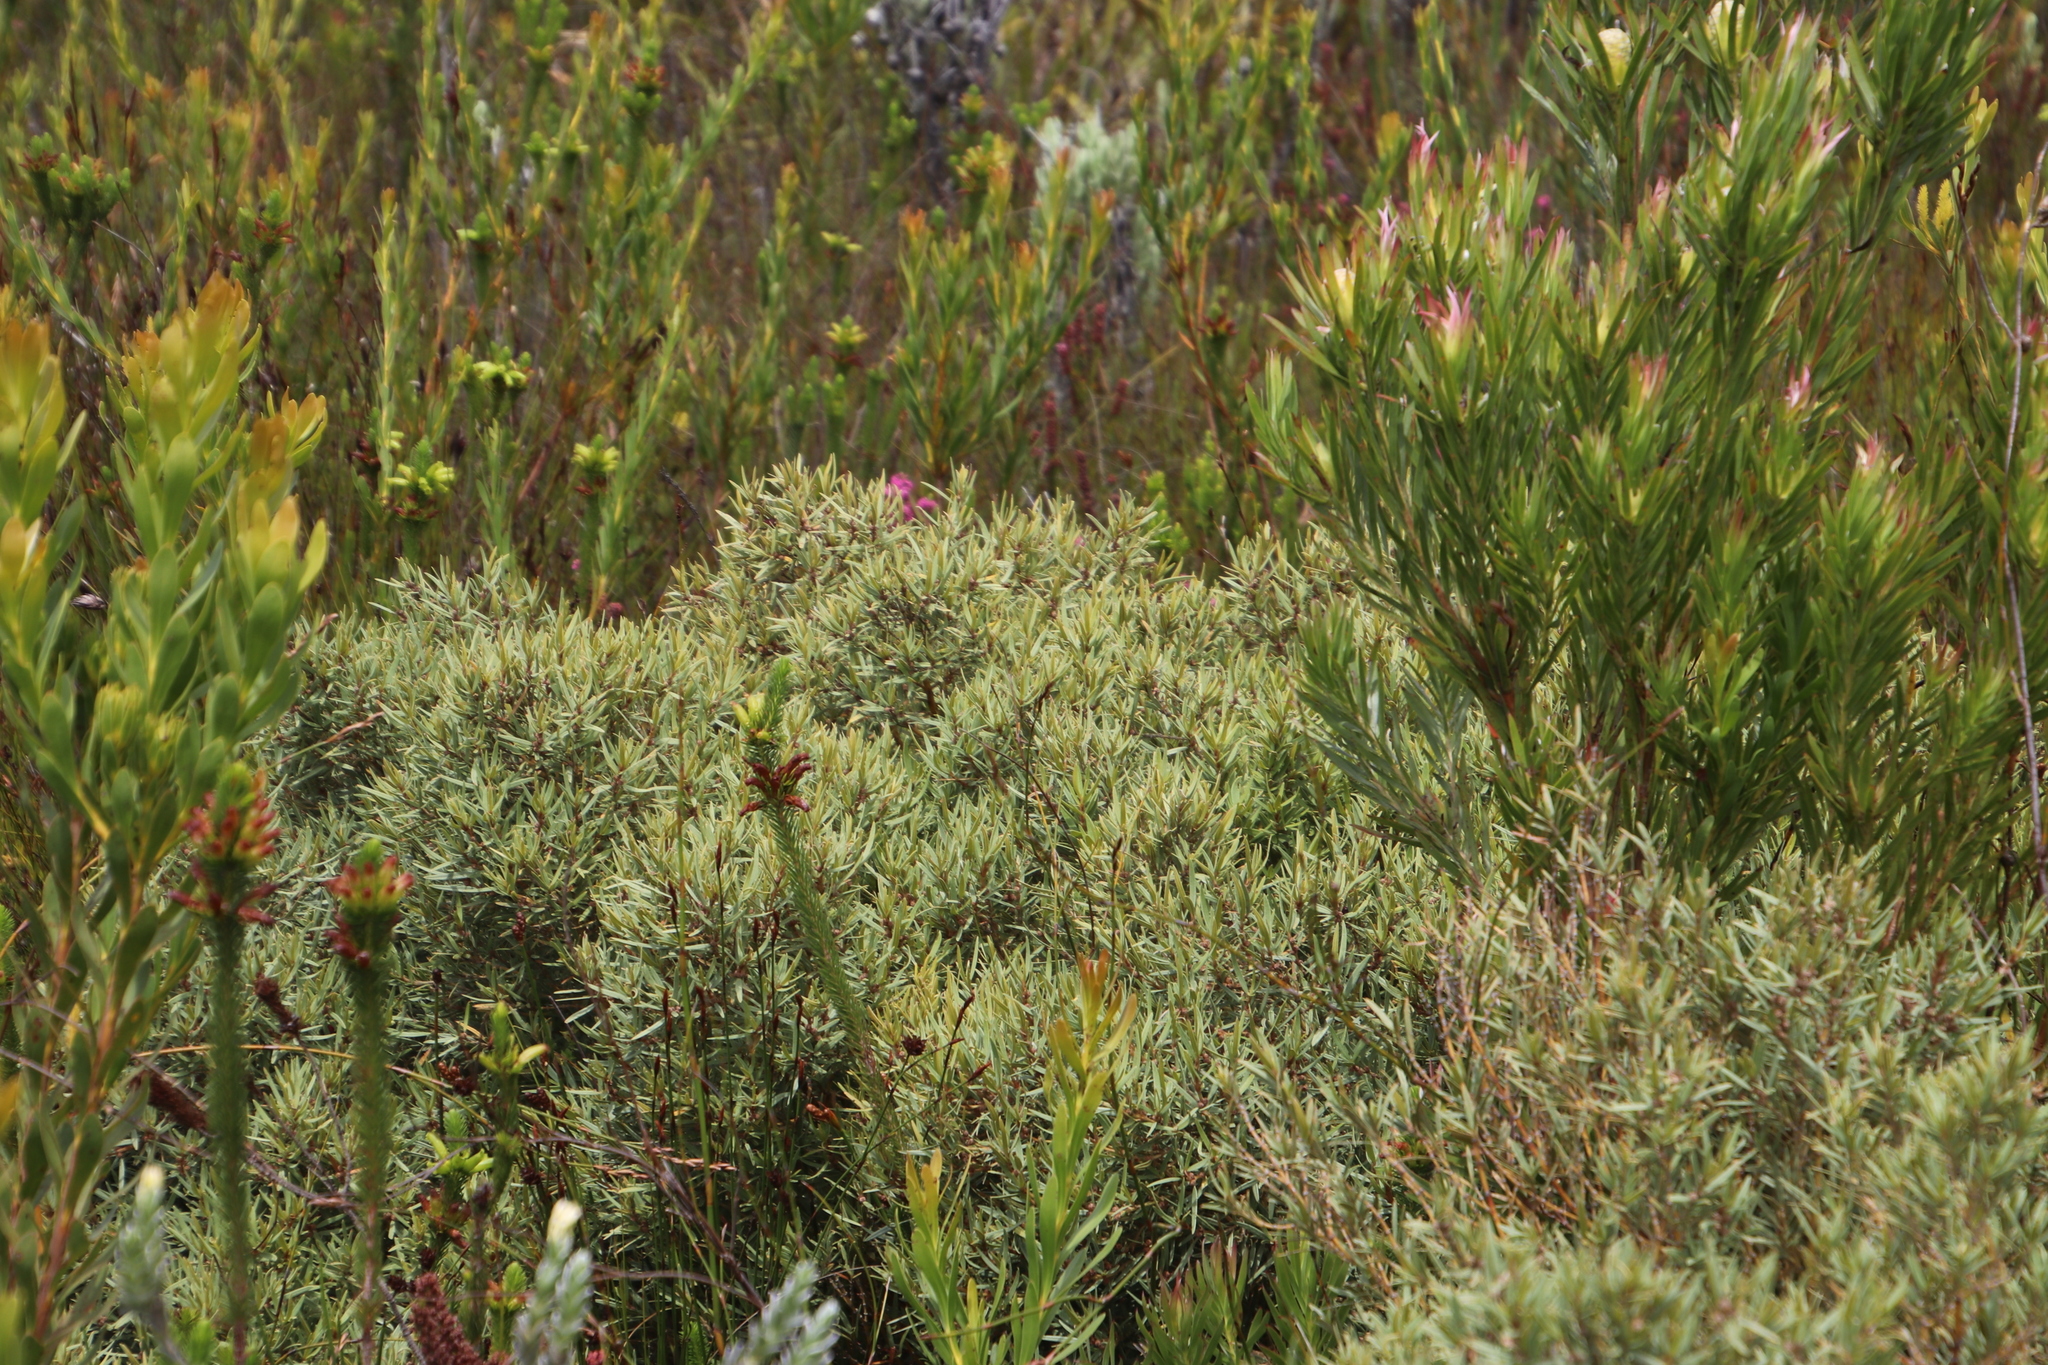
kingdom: Plantae
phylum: Tracheophyta
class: Magnoliopsida
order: Cornales
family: Grubbiaceae
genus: Grubbia
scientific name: Grubbia tomentosa
